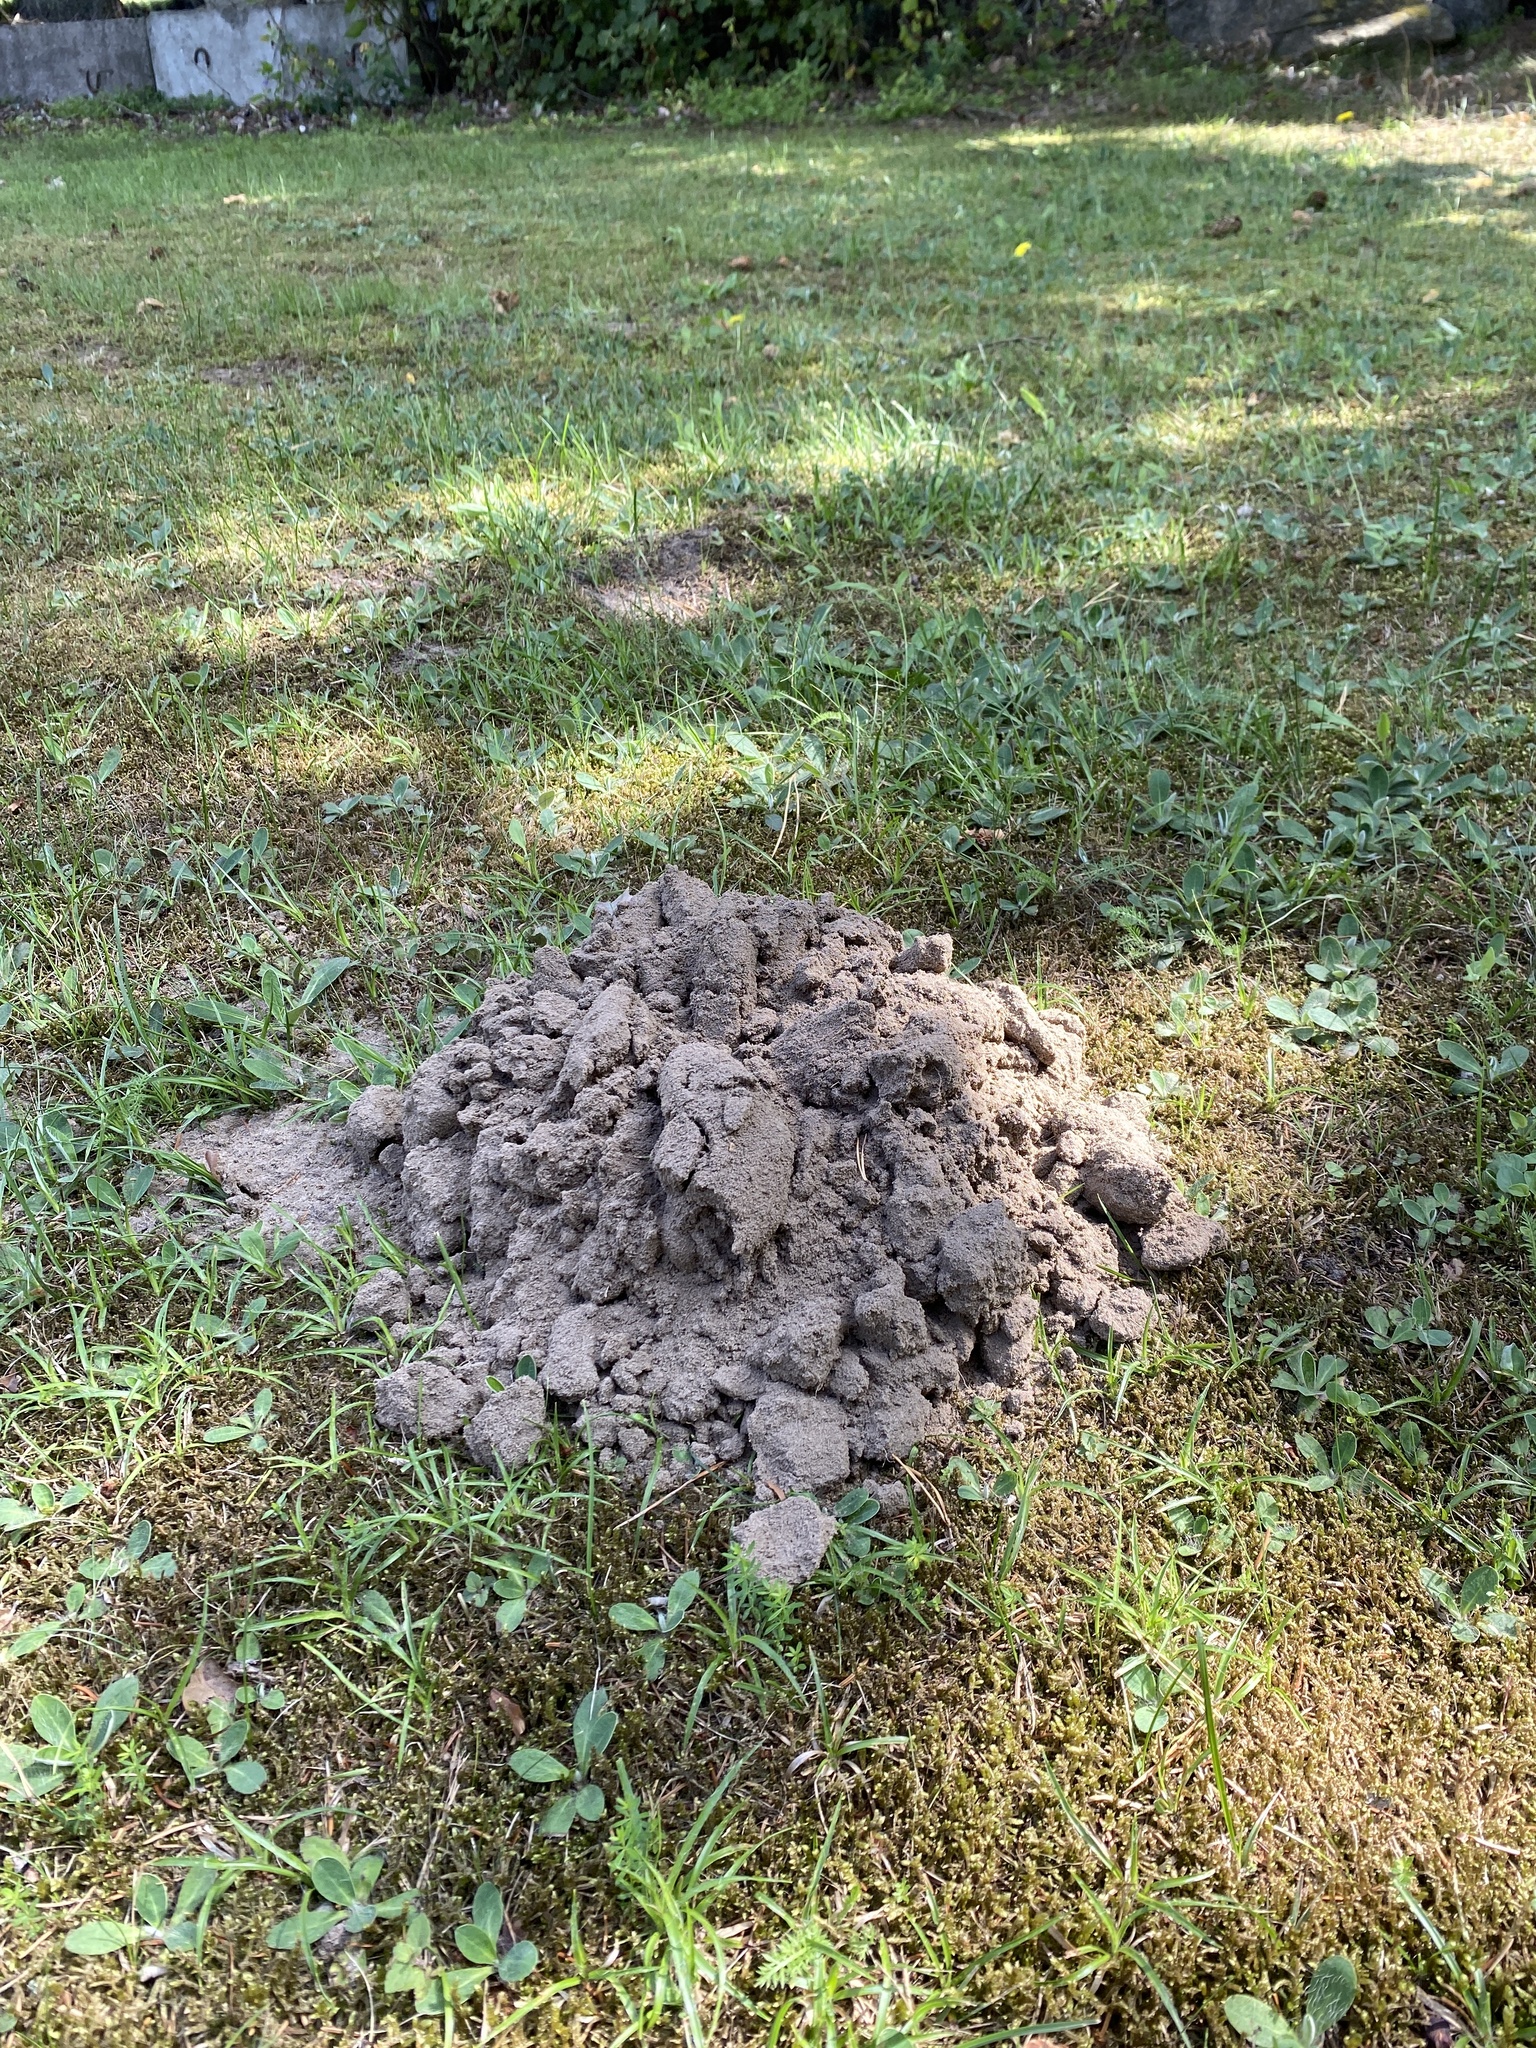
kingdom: Animalia
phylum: Chordata
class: Mammalia
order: Soricomorpha
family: Talpidae
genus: Talpa
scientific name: Talpa europaea
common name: European mole
